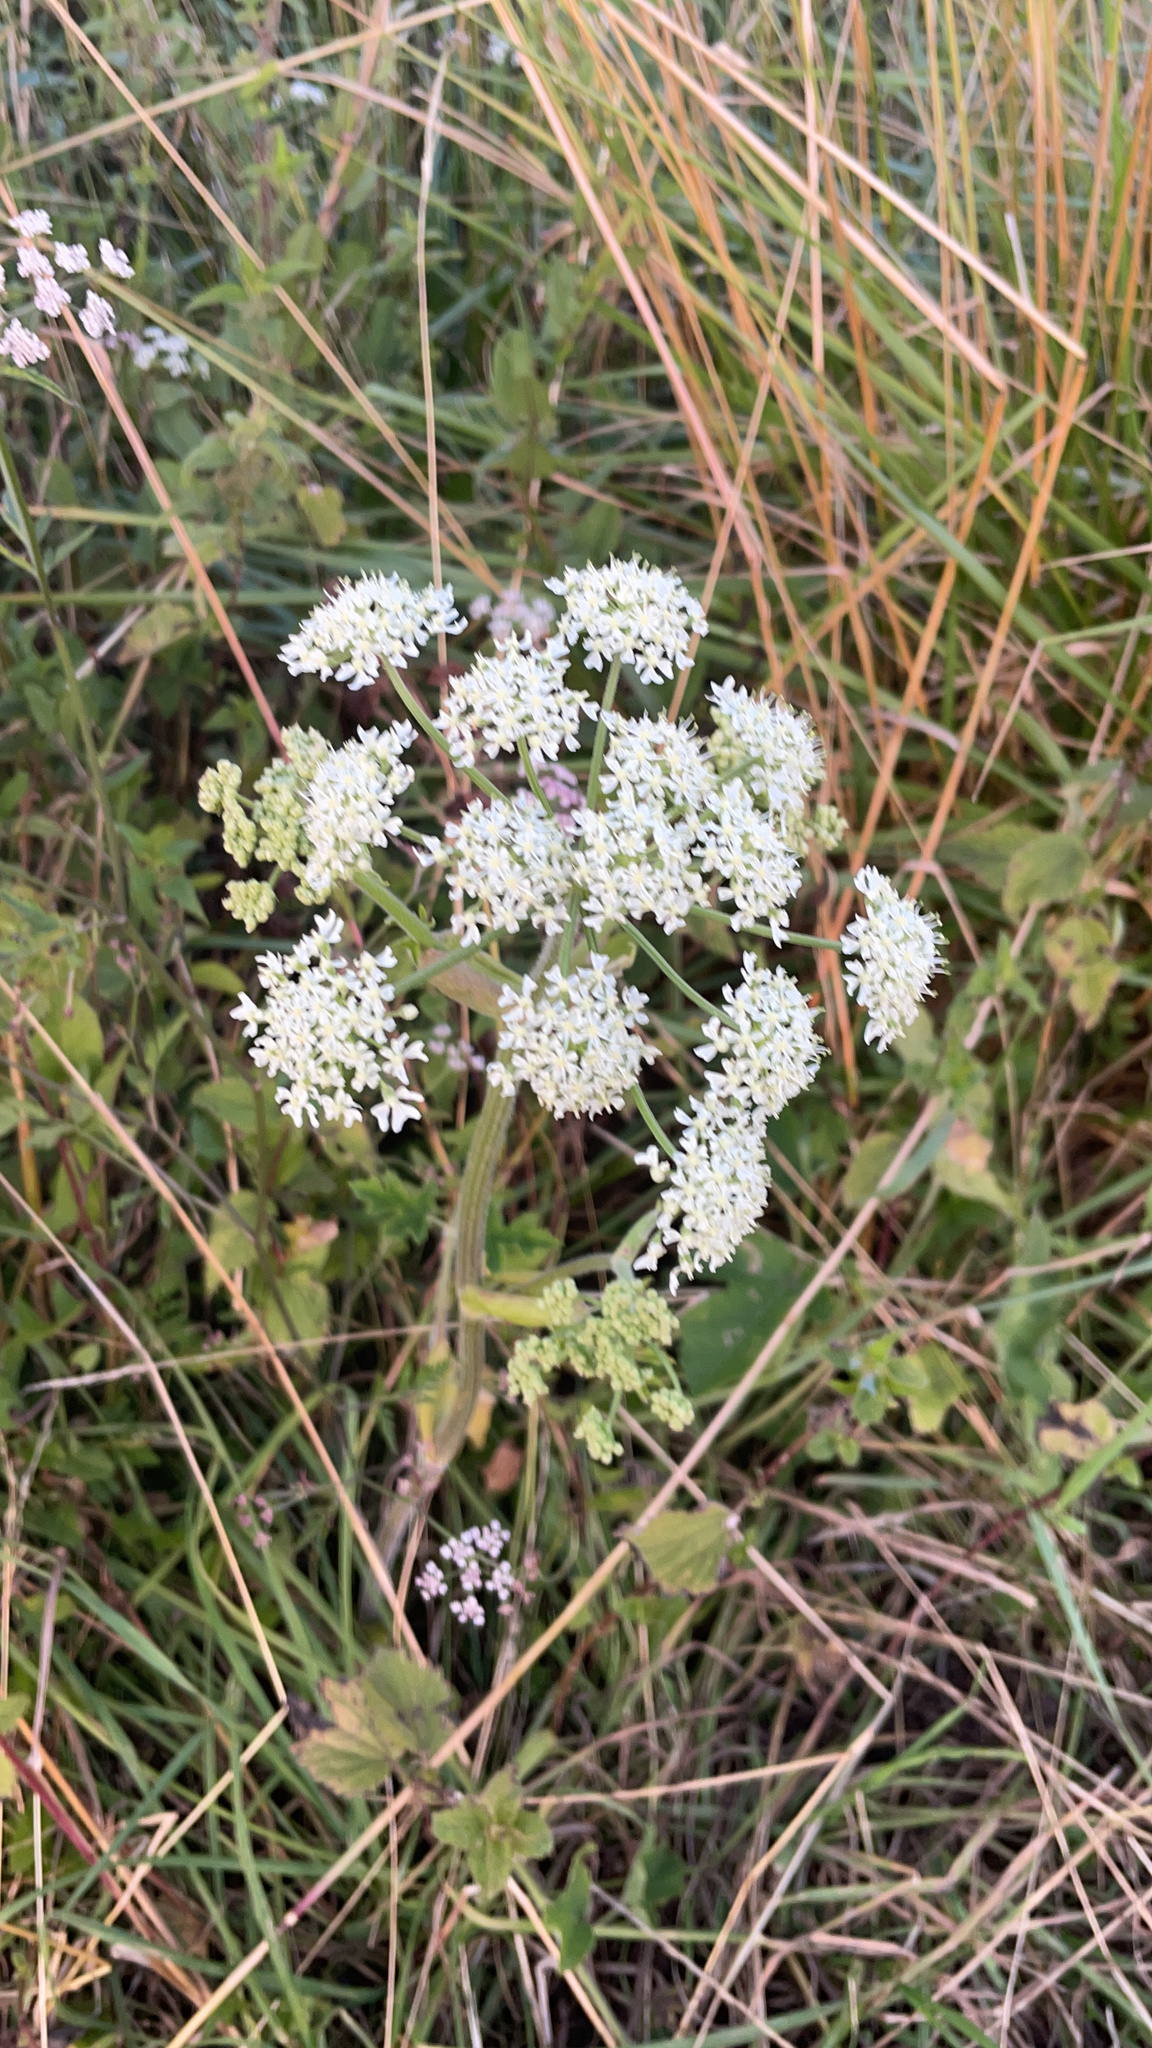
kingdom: Plantae
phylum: Tracheophyta
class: Magnoliopsida
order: Apiales
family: Apiaceae
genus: Heracleum
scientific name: Heracleum sphondylium
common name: Hogweed
